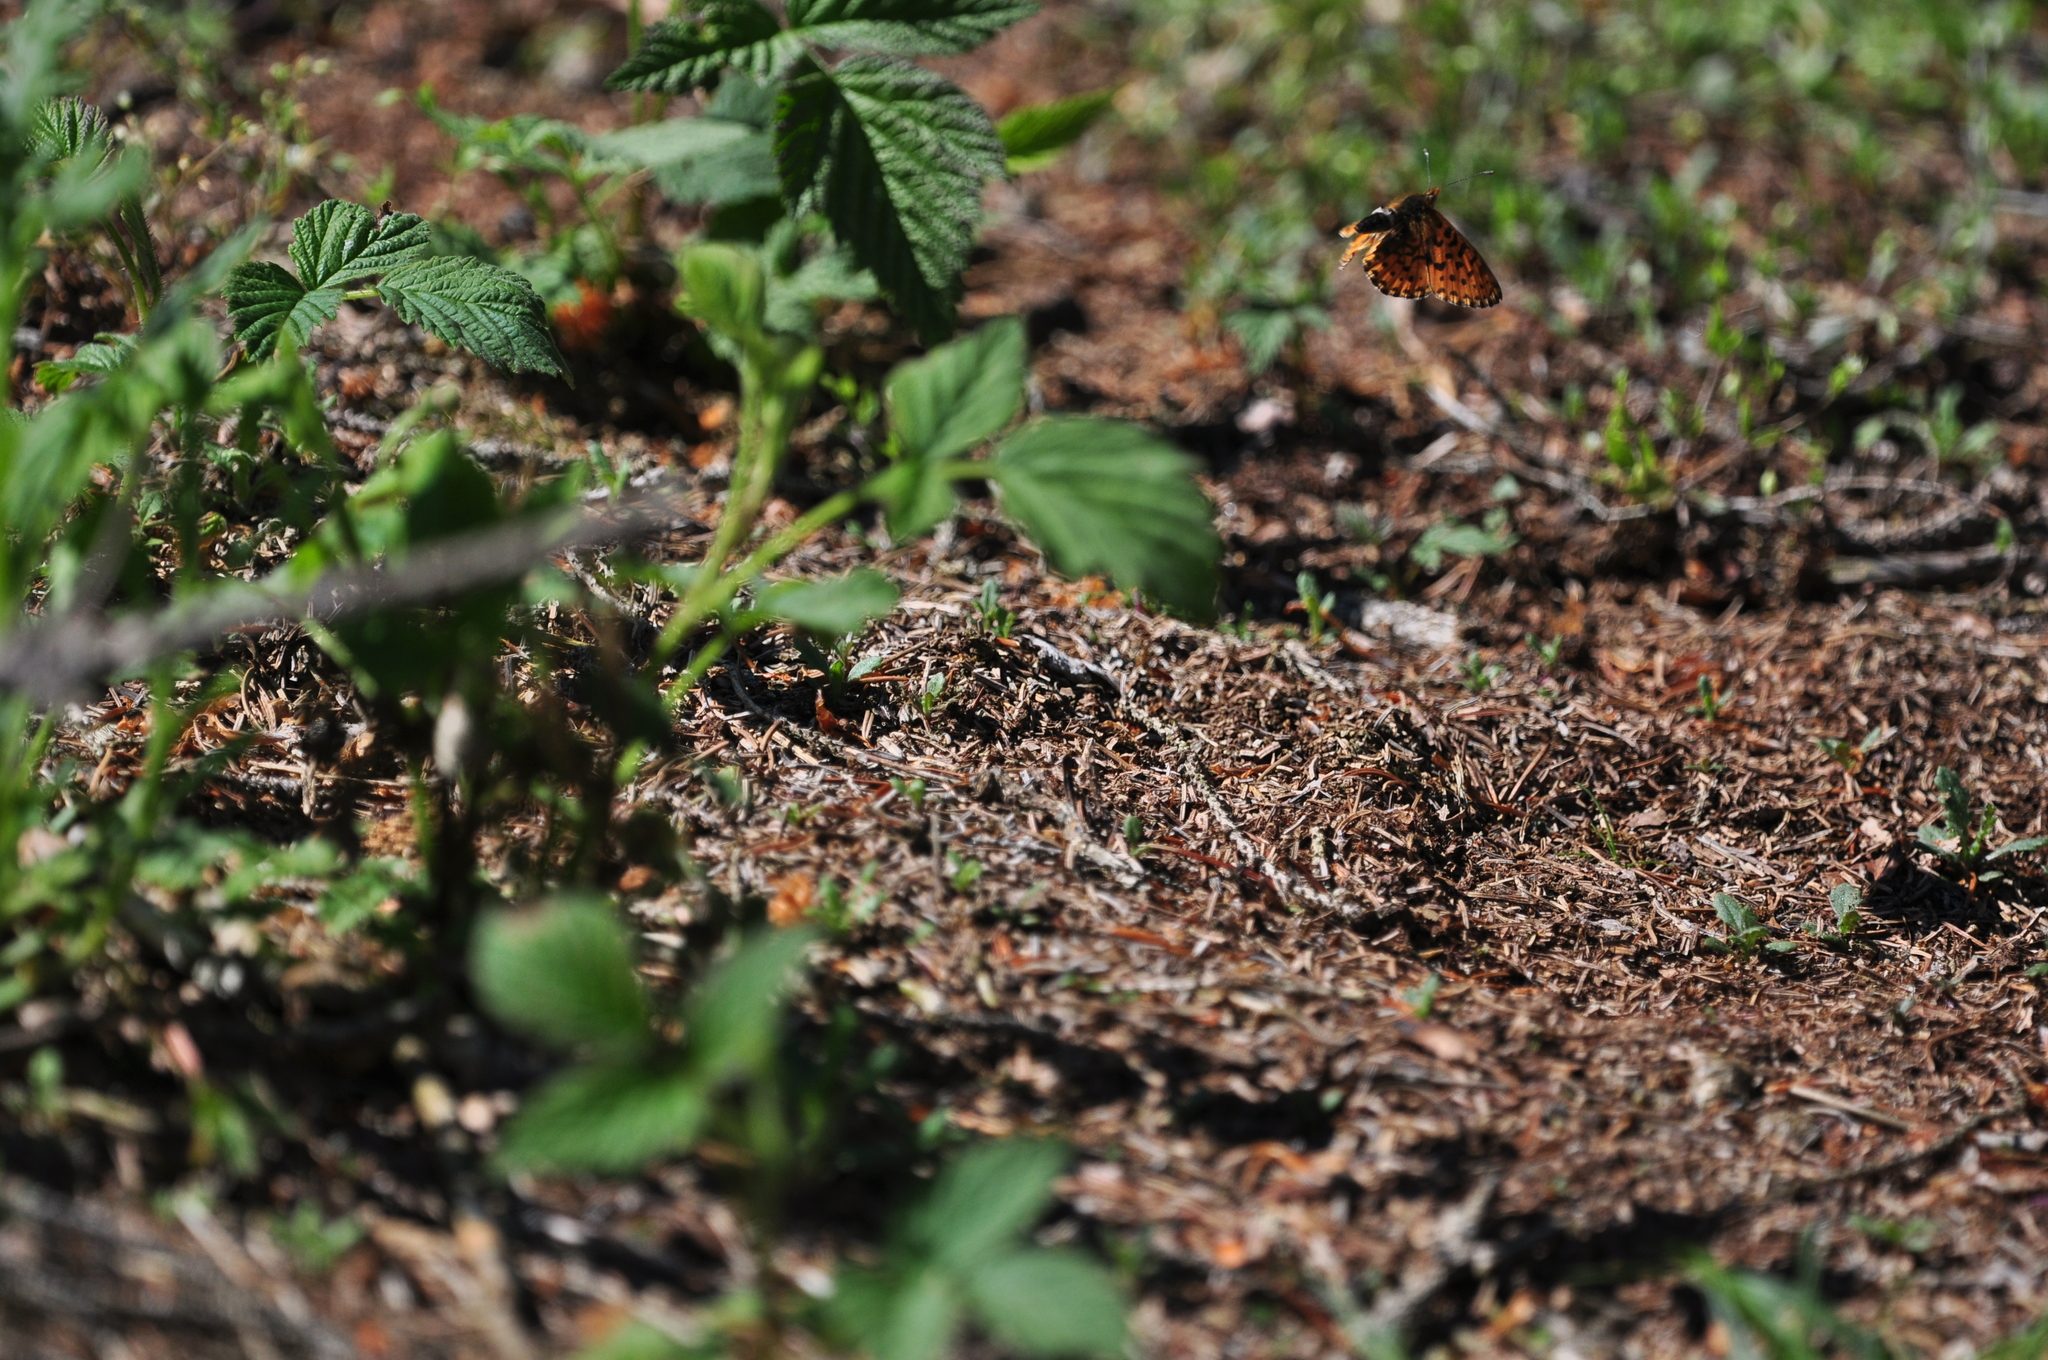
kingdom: Animalia
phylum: Arthropoda
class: Insecta
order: Lepidoptera
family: Nymphalidae
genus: Clossiana
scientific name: Clossiana euphrosyne
